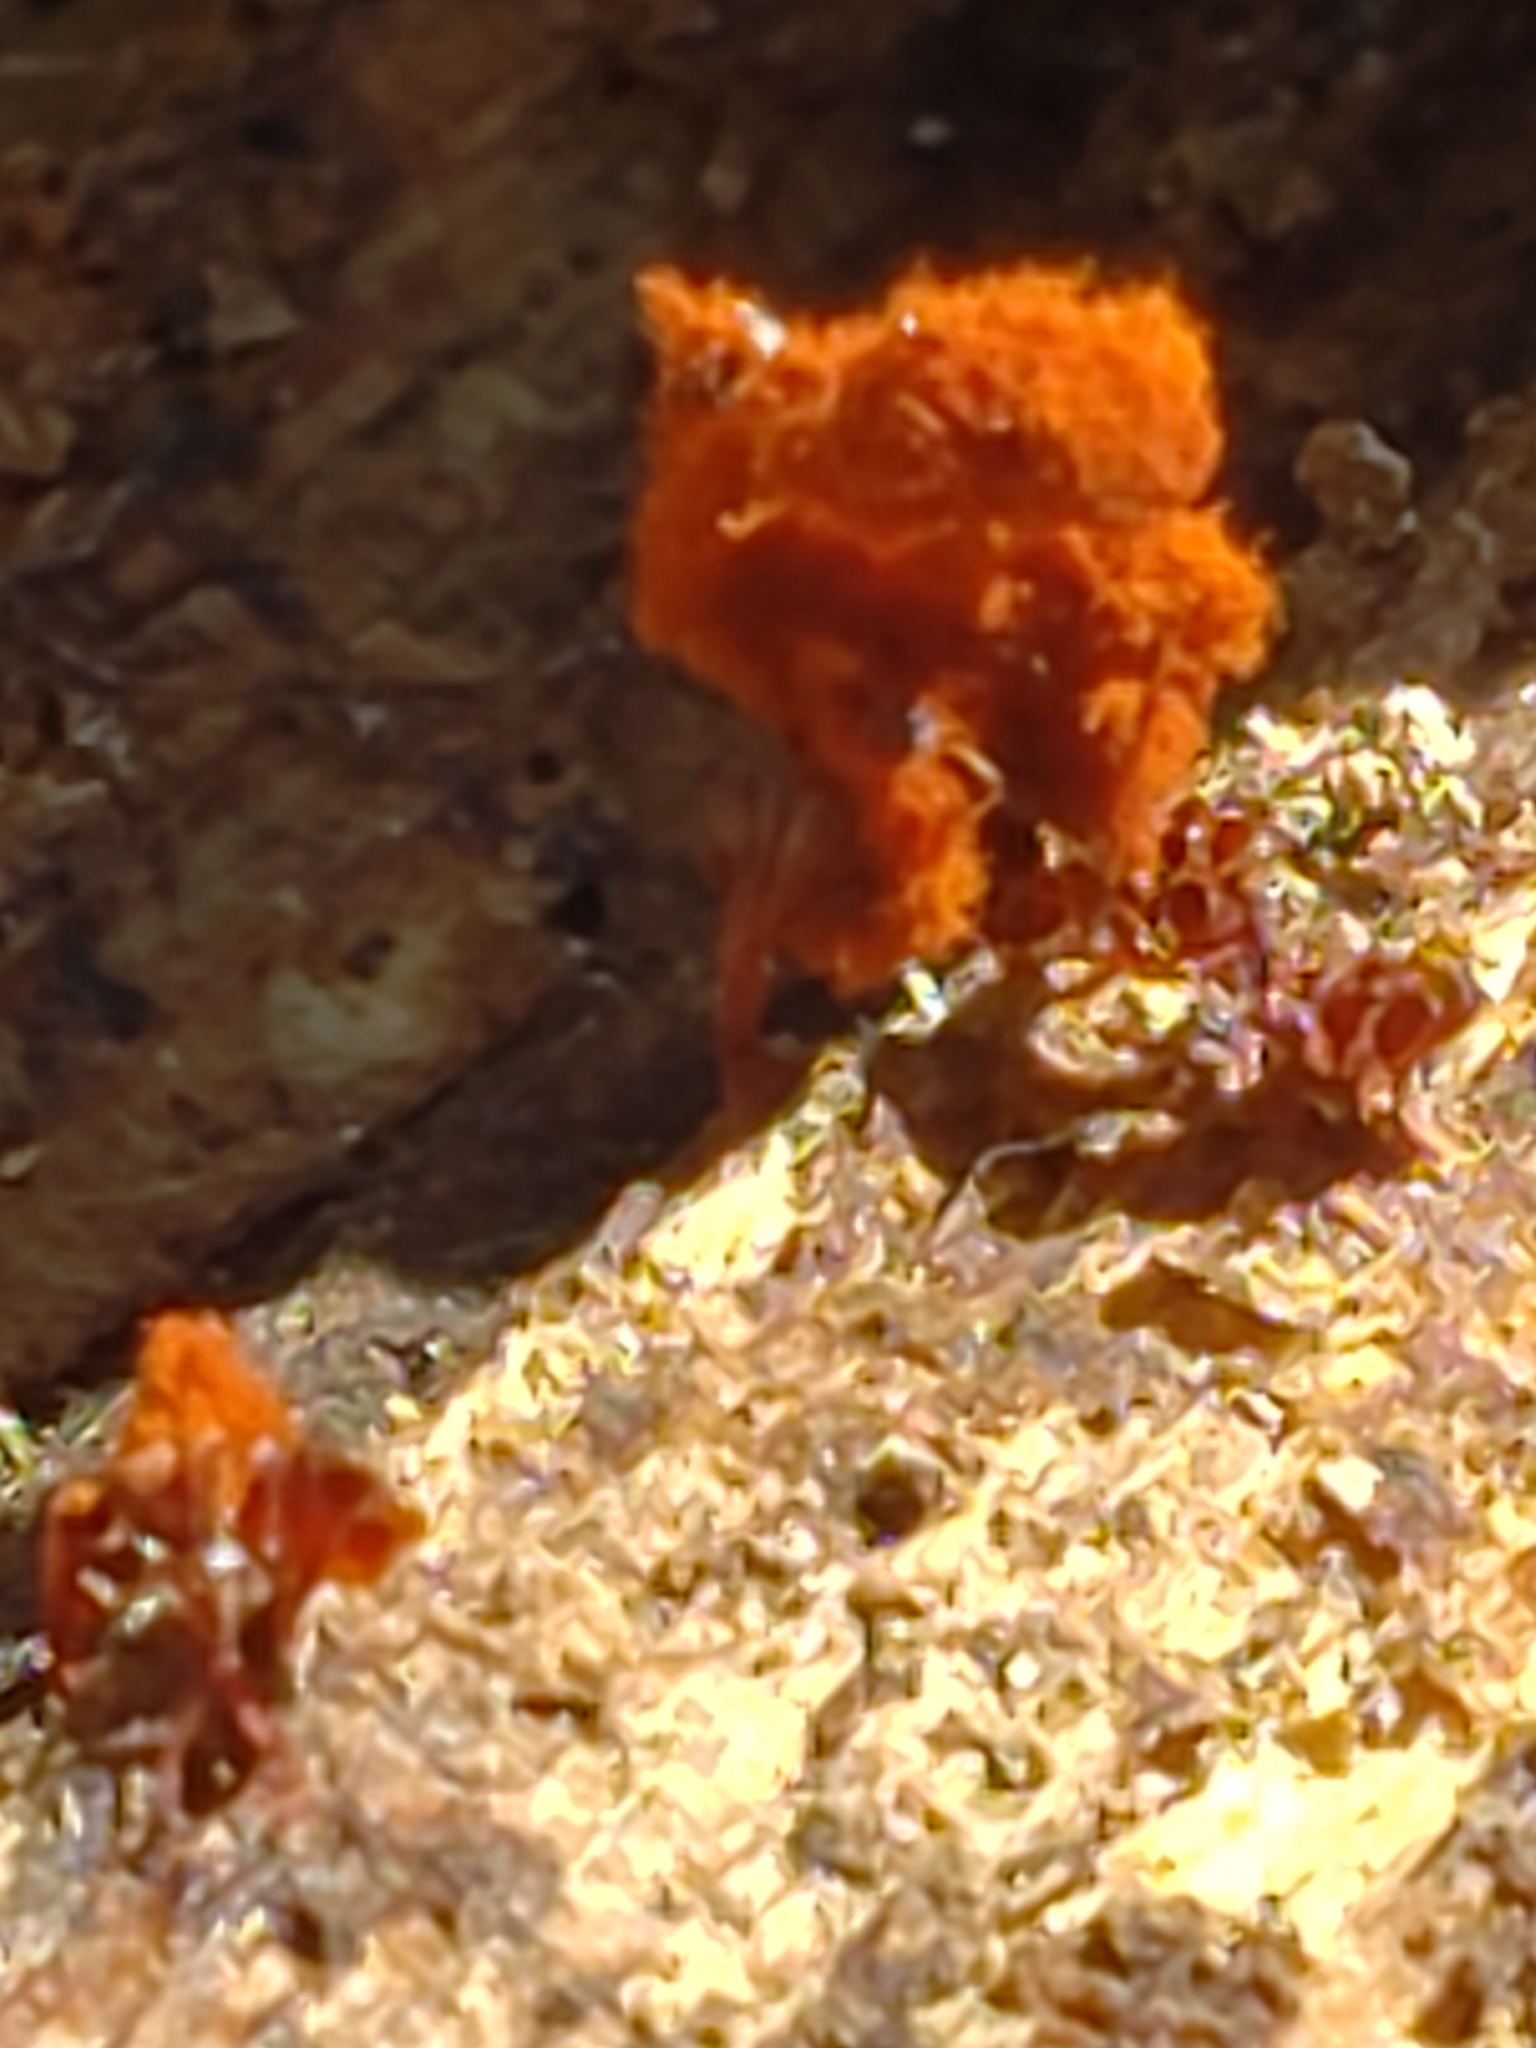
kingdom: Protozoa
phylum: Mycetozoa
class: Myxomycetes
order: Trichiales
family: Trichiaceae
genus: Metatrichia
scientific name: Metatrichia vesparia
